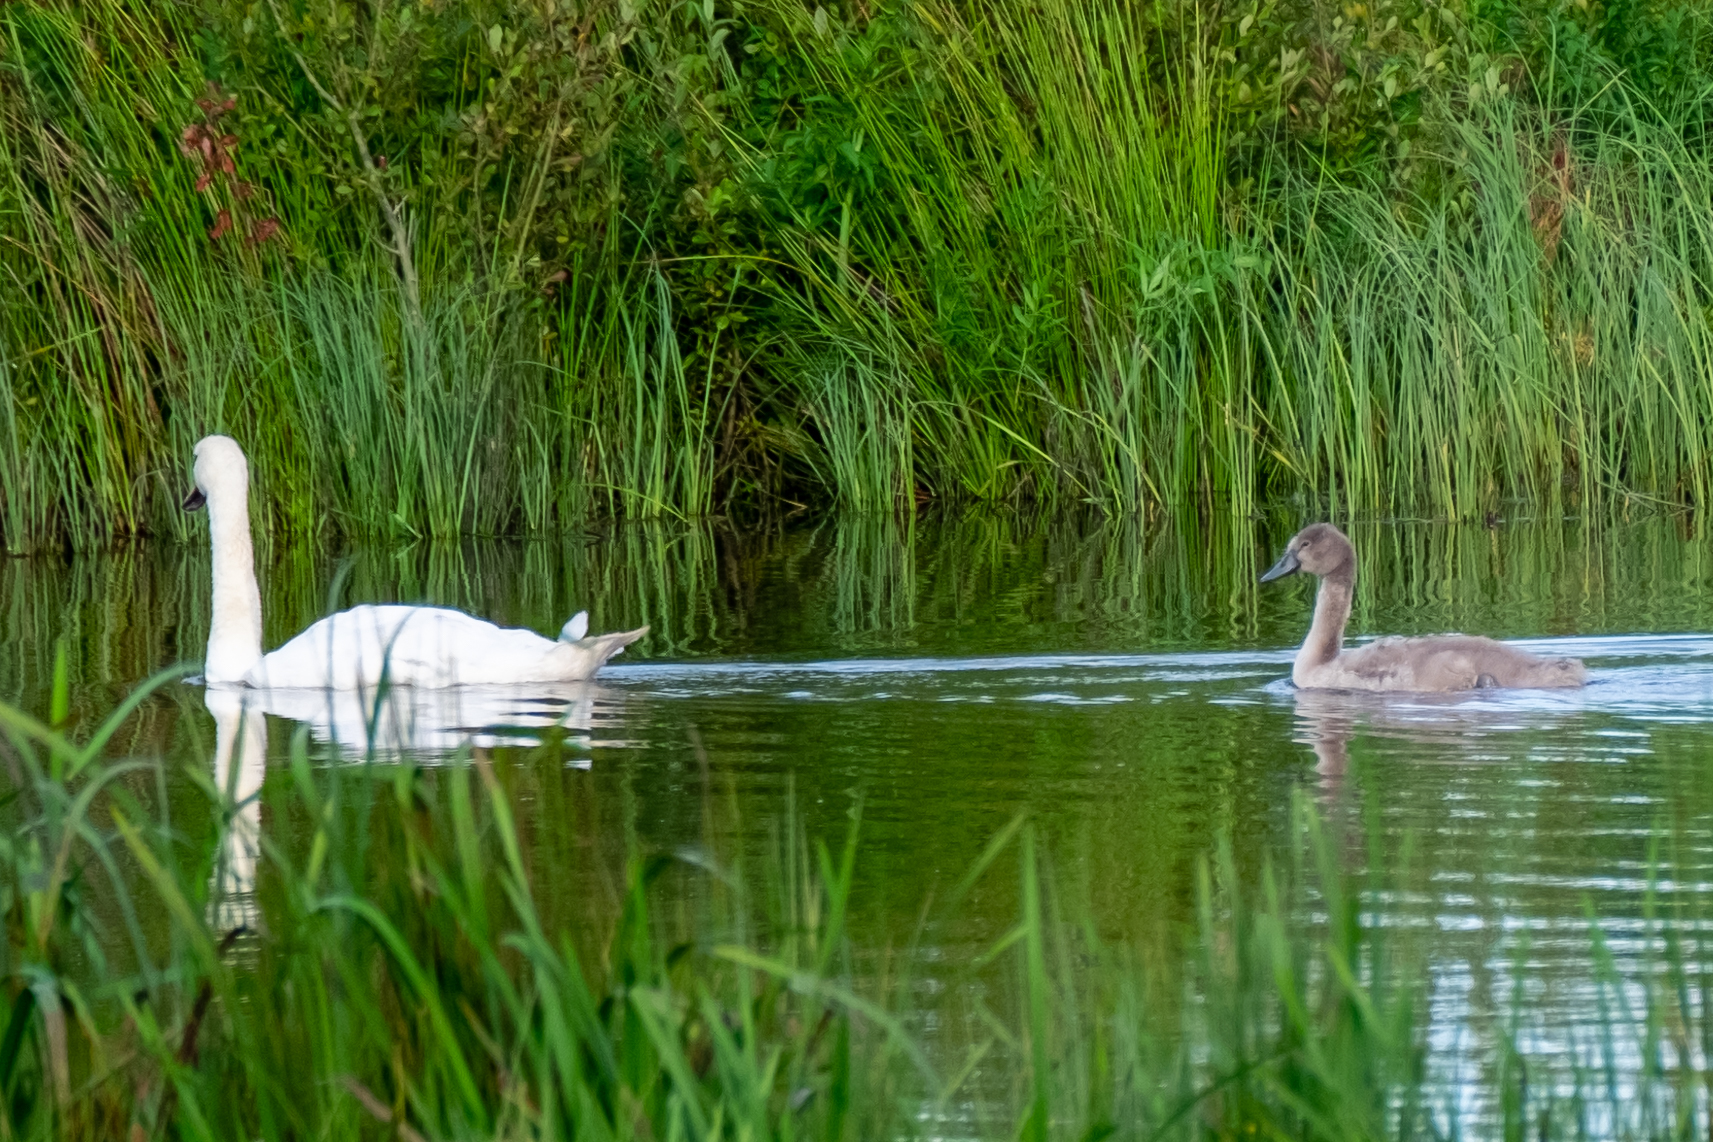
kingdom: Animalia
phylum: Chordata
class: Aves
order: Anseriformes
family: Anatidae
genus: Cygnus
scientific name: Cygnus olor
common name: Mute swan
